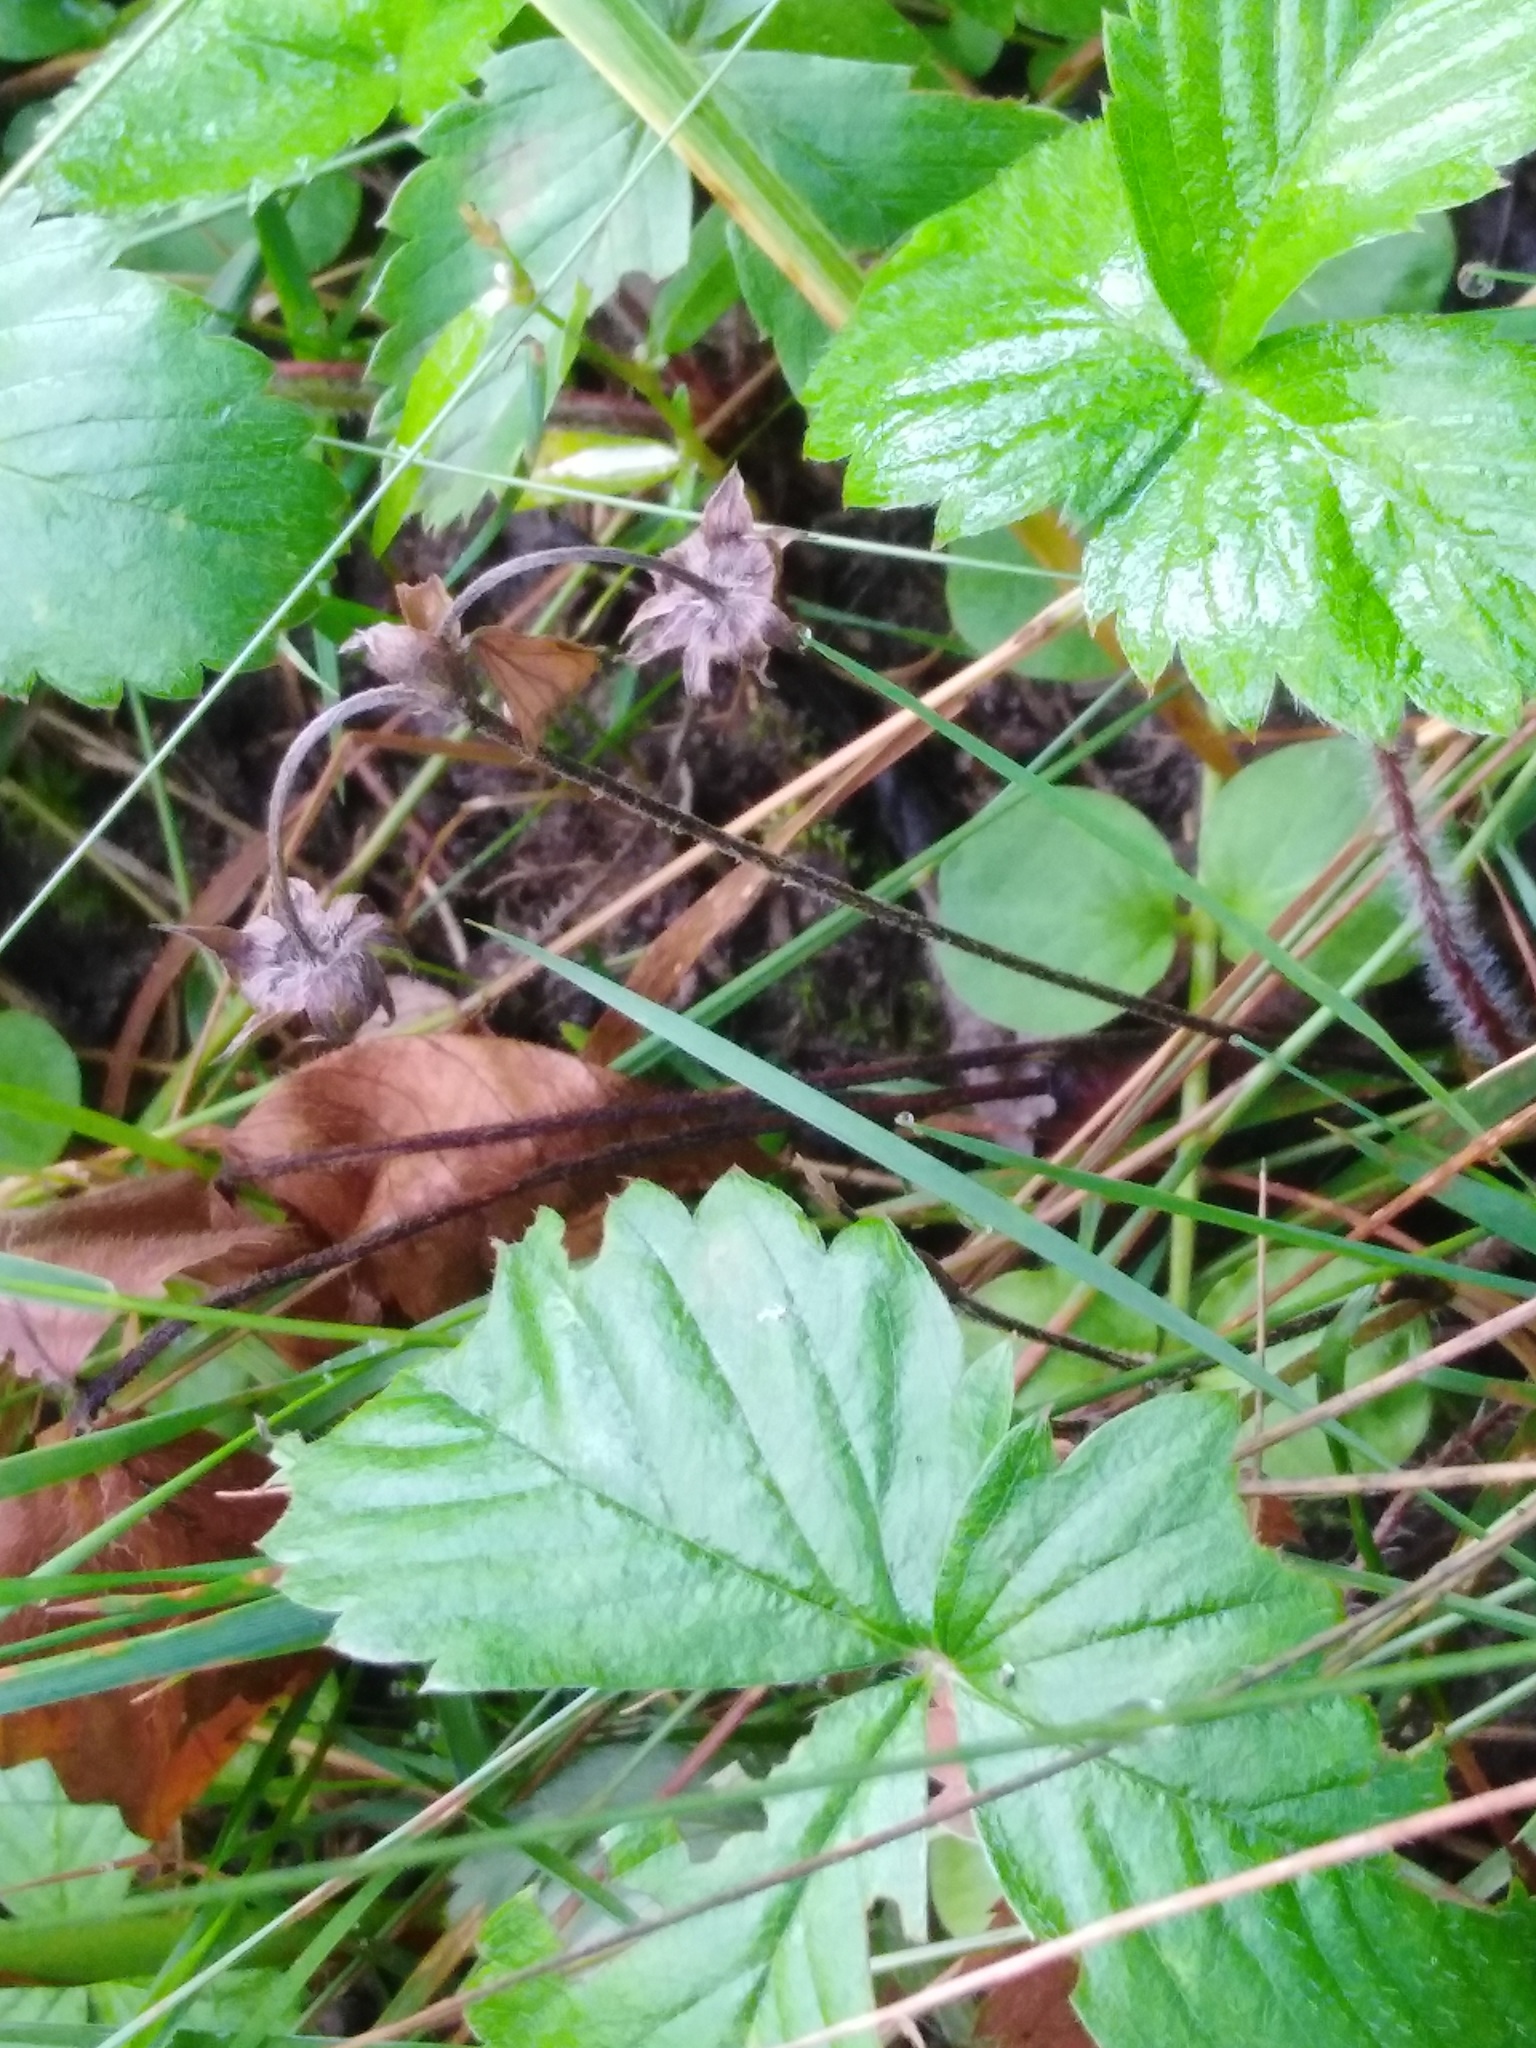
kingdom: Plantae
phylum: Tracheophyta
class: Magnoliopsida
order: Rosales
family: Rosaceae
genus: Fragaria
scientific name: Fragaria vesca
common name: Wild strawberry
